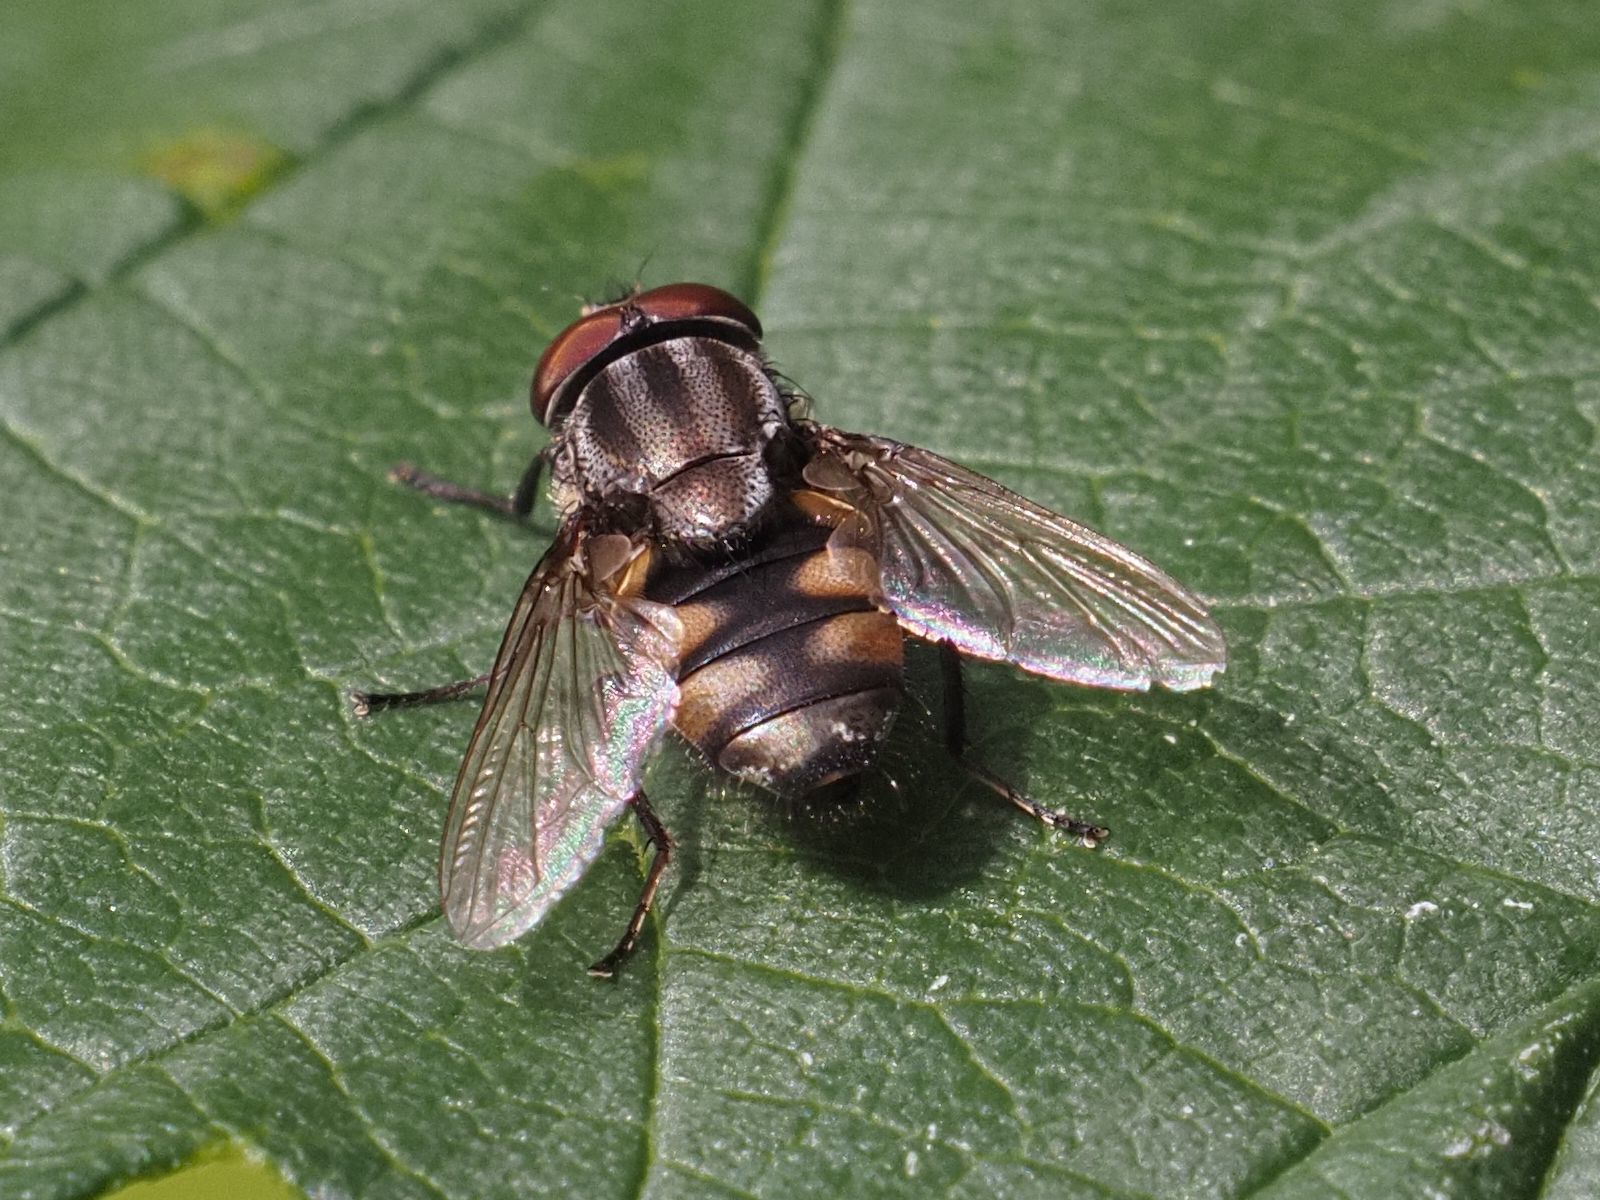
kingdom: Animalia
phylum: Arthropoda
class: Insecta
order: Diptera
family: Calliphoridae
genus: Stomorhina
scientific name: Stomorhina lunata
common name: Locust blowfly
